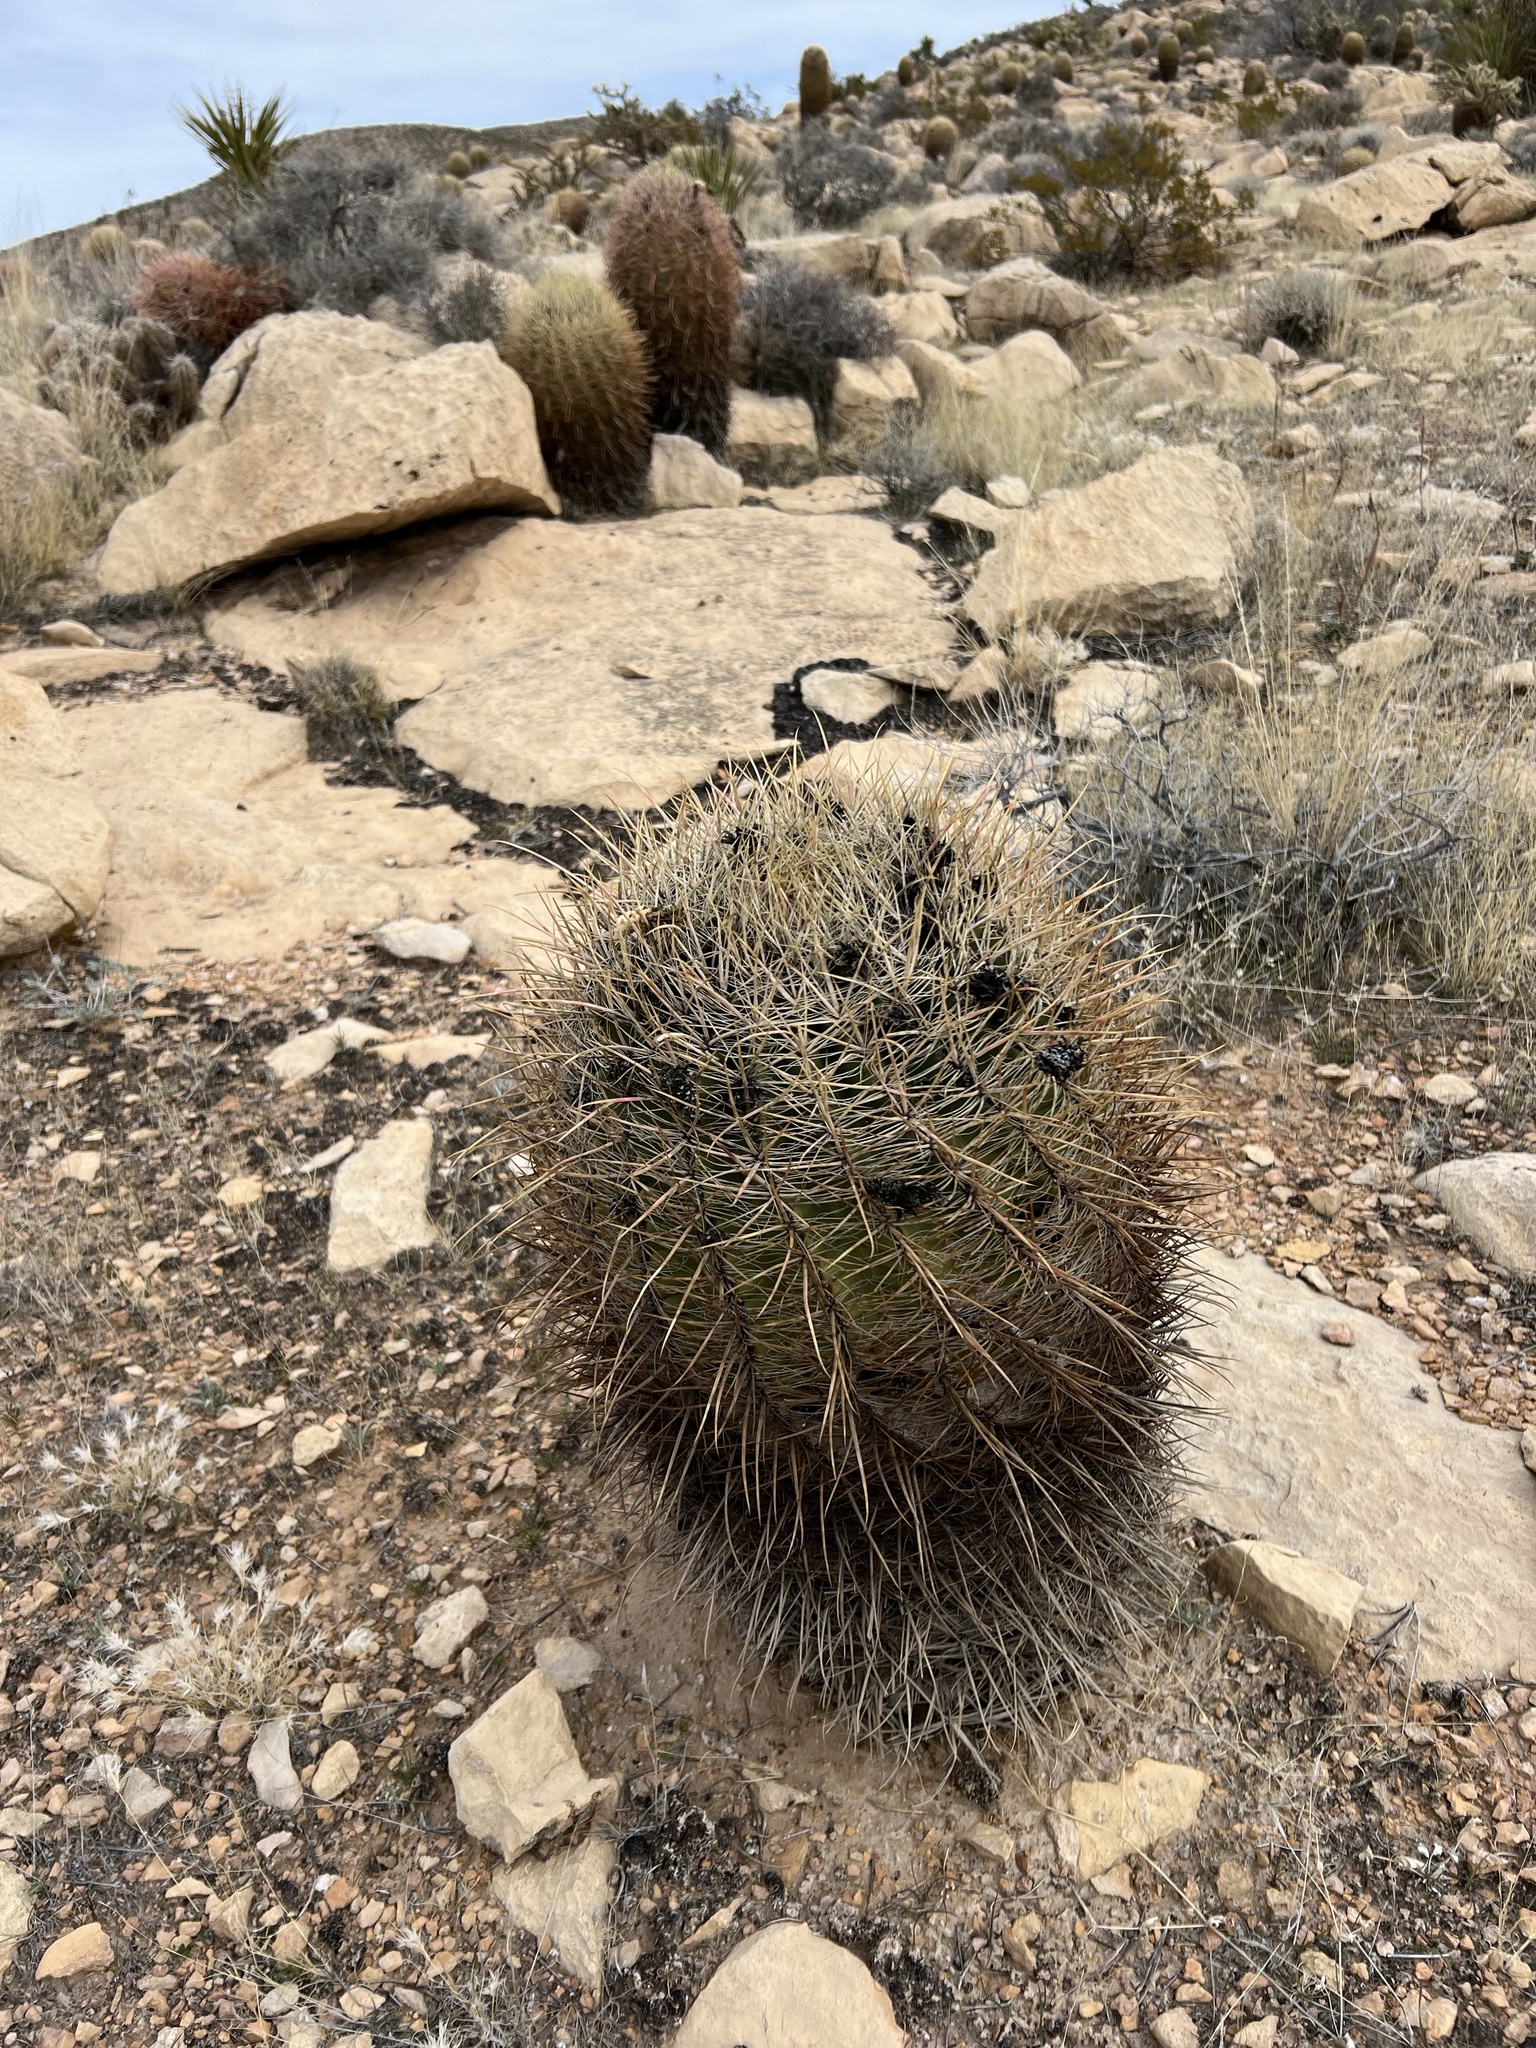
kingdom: Plantae
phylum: Tracheophyta
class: Magnoliopsida
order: Caryophyllales
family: Cactaceae
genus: Ferocactus
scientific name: Ferocactus cylindraceus
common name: California barrel cactus
